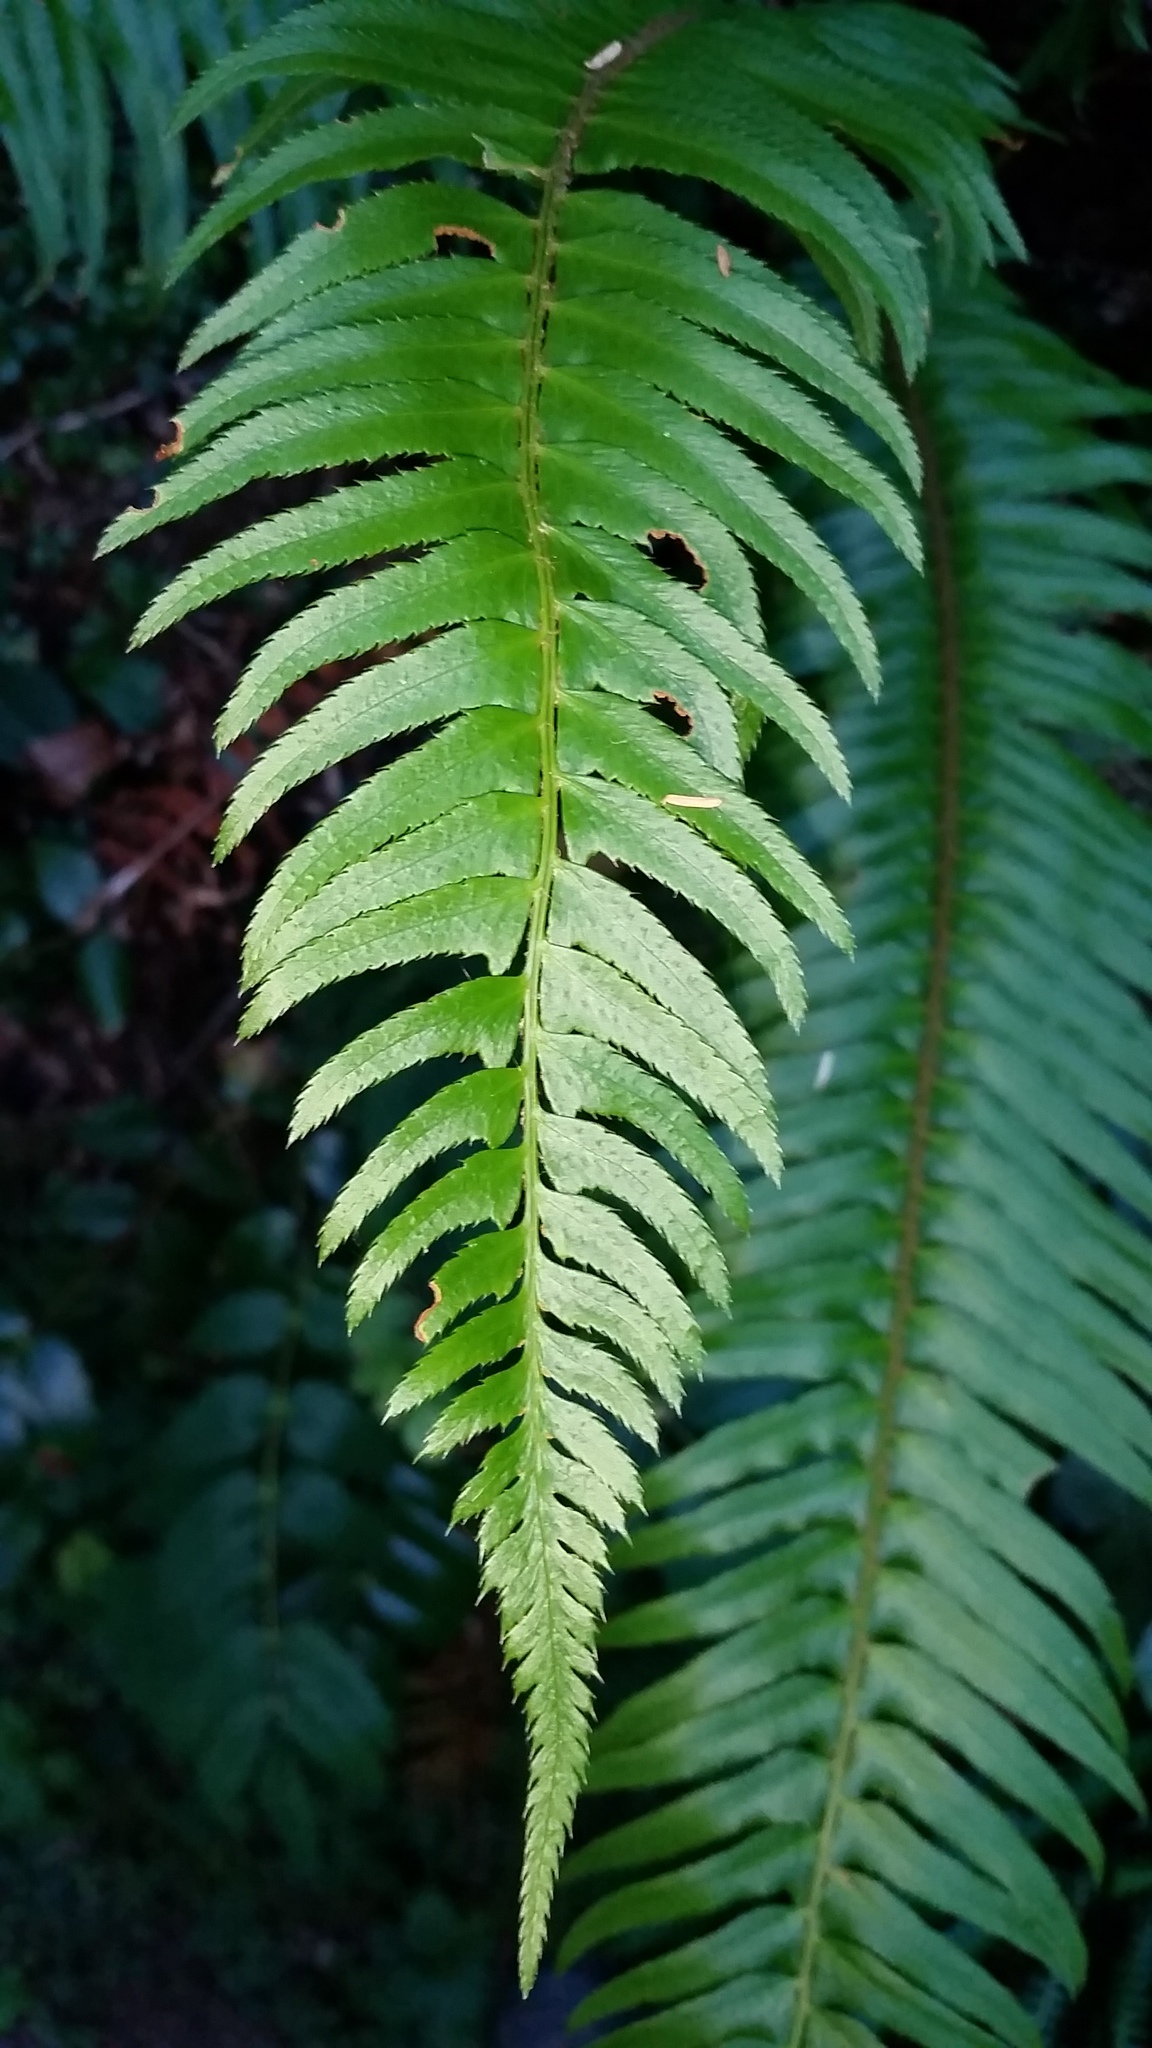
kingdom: Plantae
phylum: Tracheophyta
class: Polypodiopsida
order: Polypodiales
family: Dryopteridaceae
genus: Polystichum
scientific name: Polystichum munitum
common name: Western sword-fern
